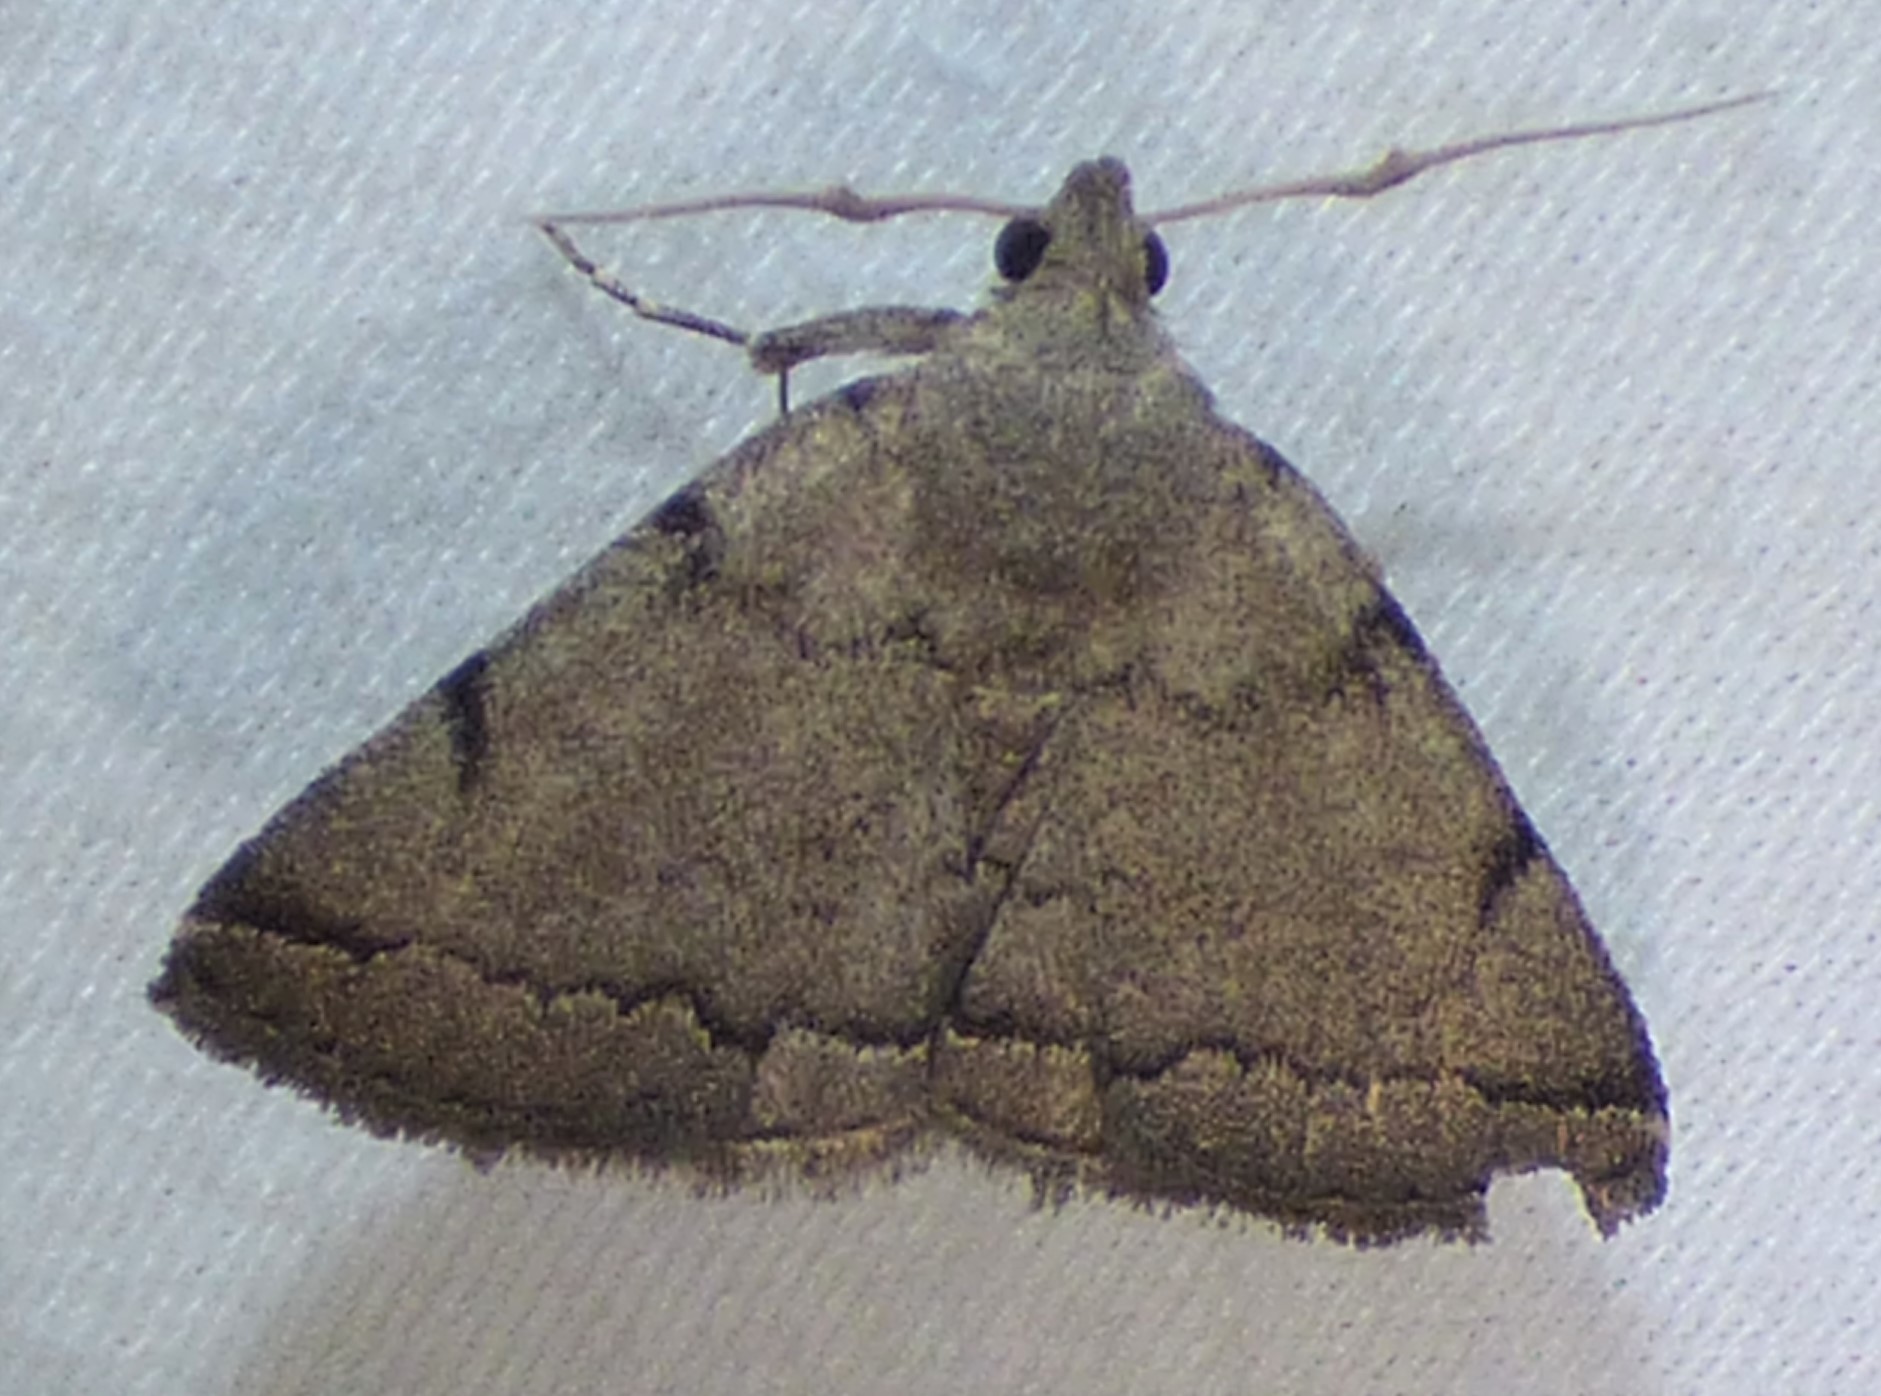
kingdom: Animalia
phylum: Arthropoda
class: Insecta
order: Lepidoptera
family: Erebidae
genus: Zanclognatha
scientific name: Zanclognatha theralis
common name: Flagged fan-foot
